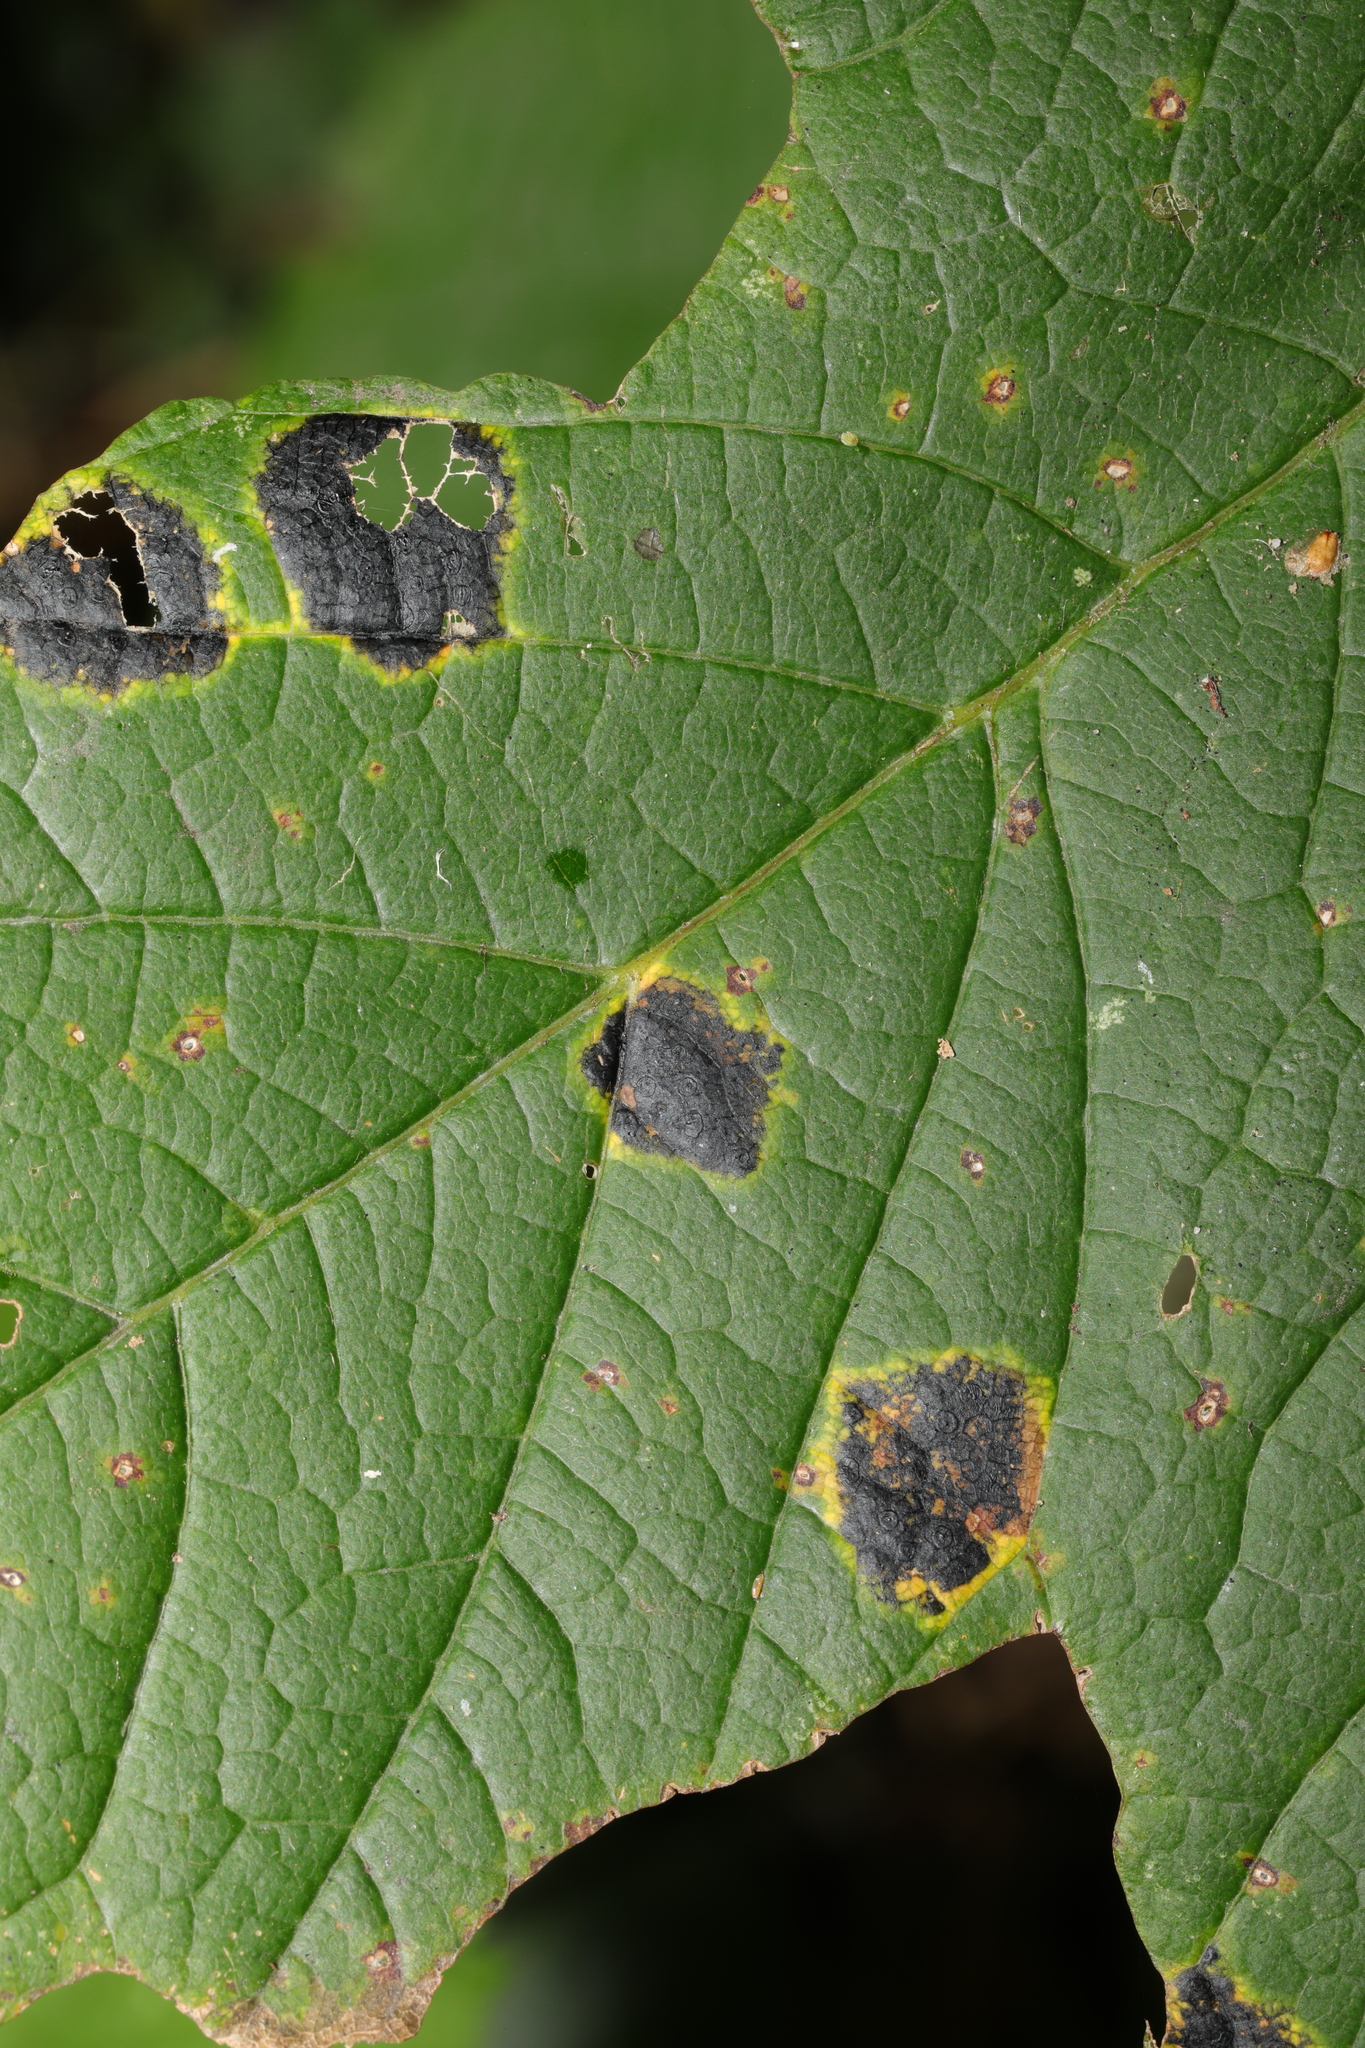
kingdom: Fungi
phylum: Ascomycota
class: Leotiomycetes
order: Rhytismatales
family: Rhytismataceae
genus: Rhytisma
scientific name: Rhytisma acerinum
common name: European tar spot
